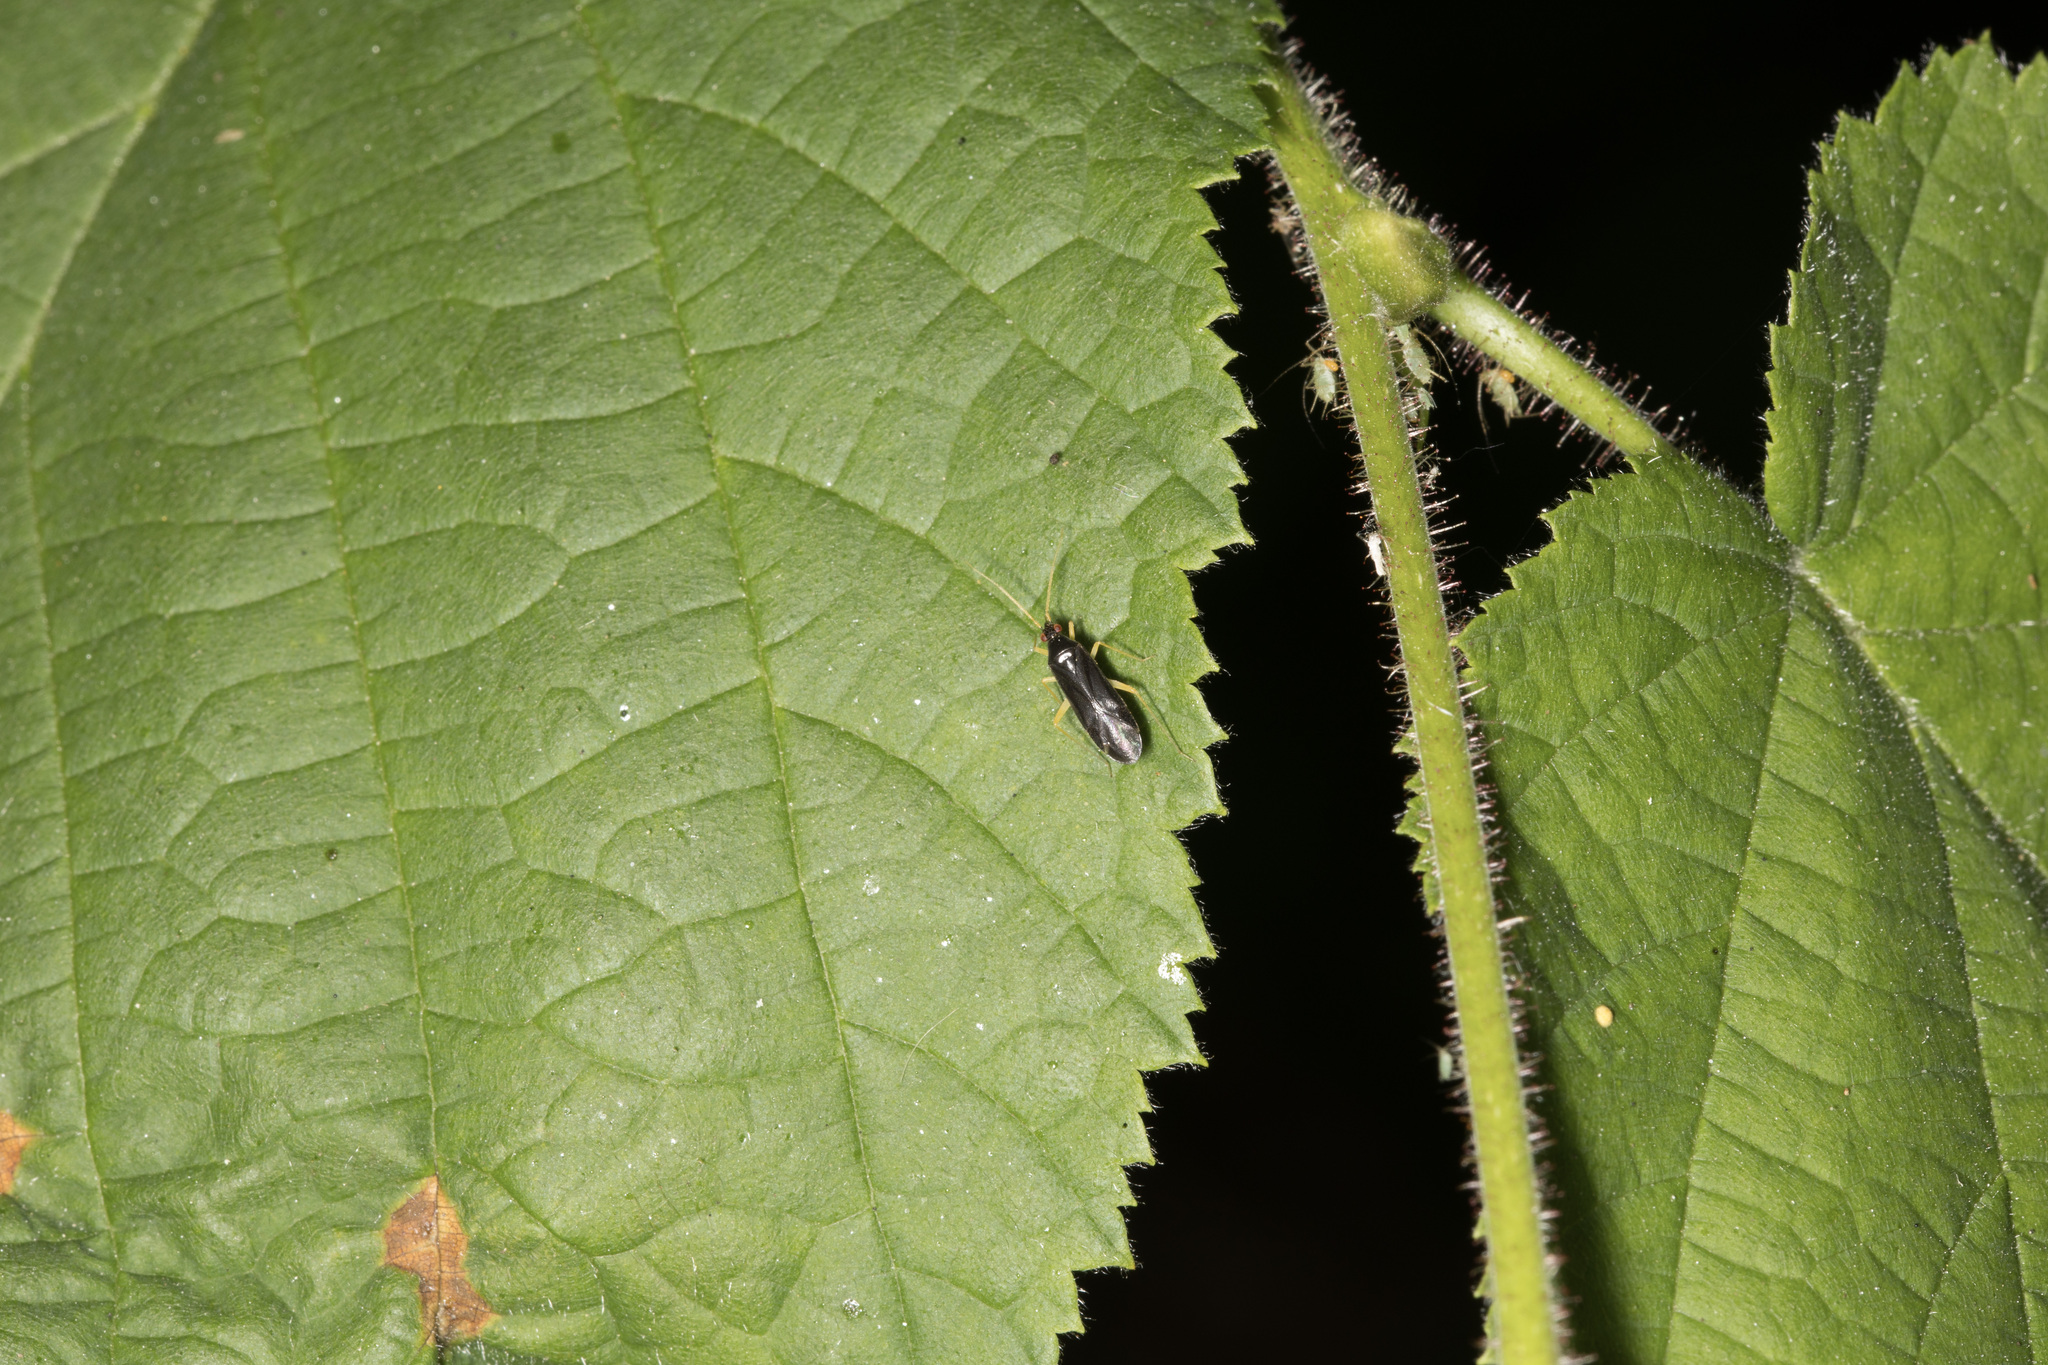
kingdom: Animalia
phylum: Arthropoda
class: Insecta
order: Hemiptera
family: Miridae
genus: Phylus
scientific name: Phylus coryli
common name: Plant bug
